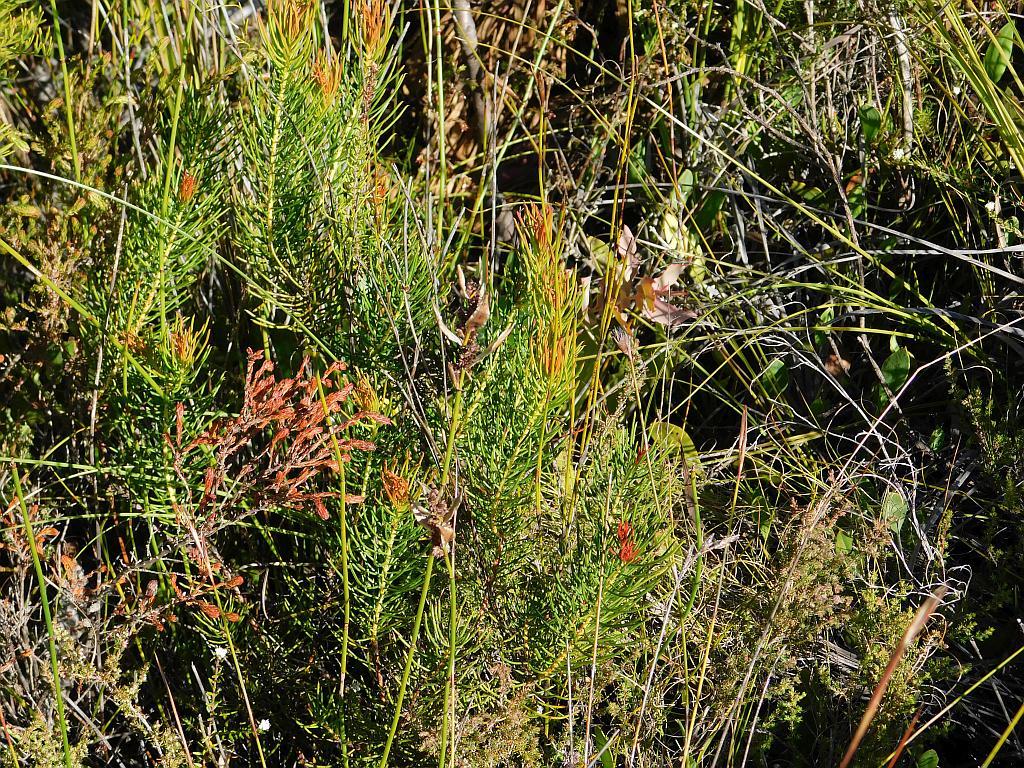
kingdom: Plantae
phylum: Tracheophyta
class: Magnoliopsida
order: Proteales
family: Proteaceae
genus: Protea
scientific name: Protea subulifolia
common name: Awl-leaf sugarbush
